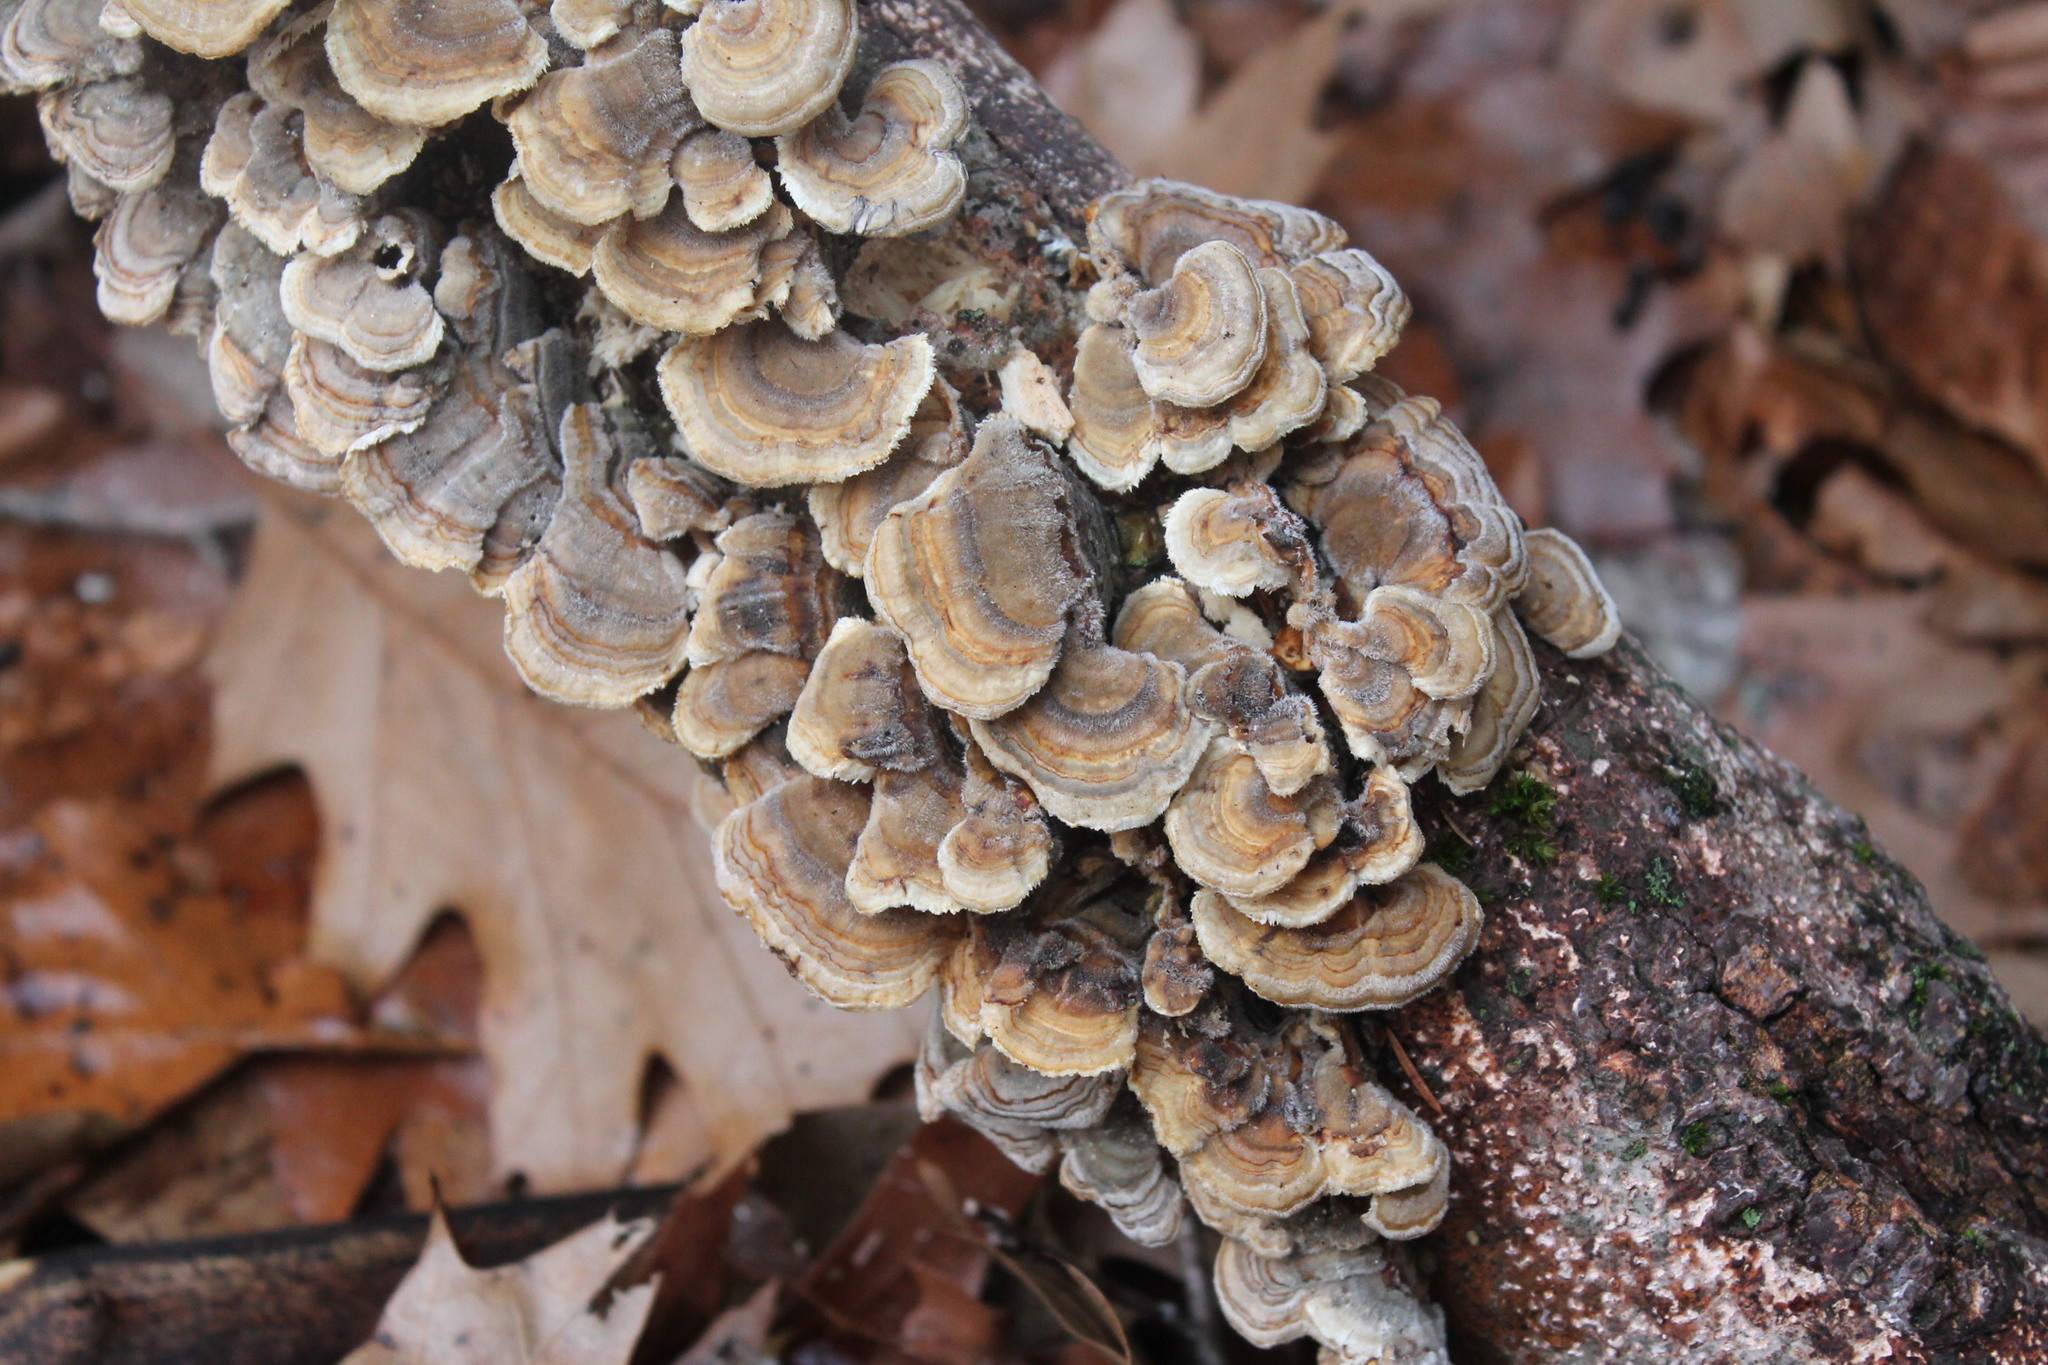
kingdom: Fungi
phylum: Basidiomycota
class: Agaricomycetes
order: Polyporales
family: Polyporaceae
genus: Trametes
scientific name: Trametes versicolor
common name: Turkeytail
